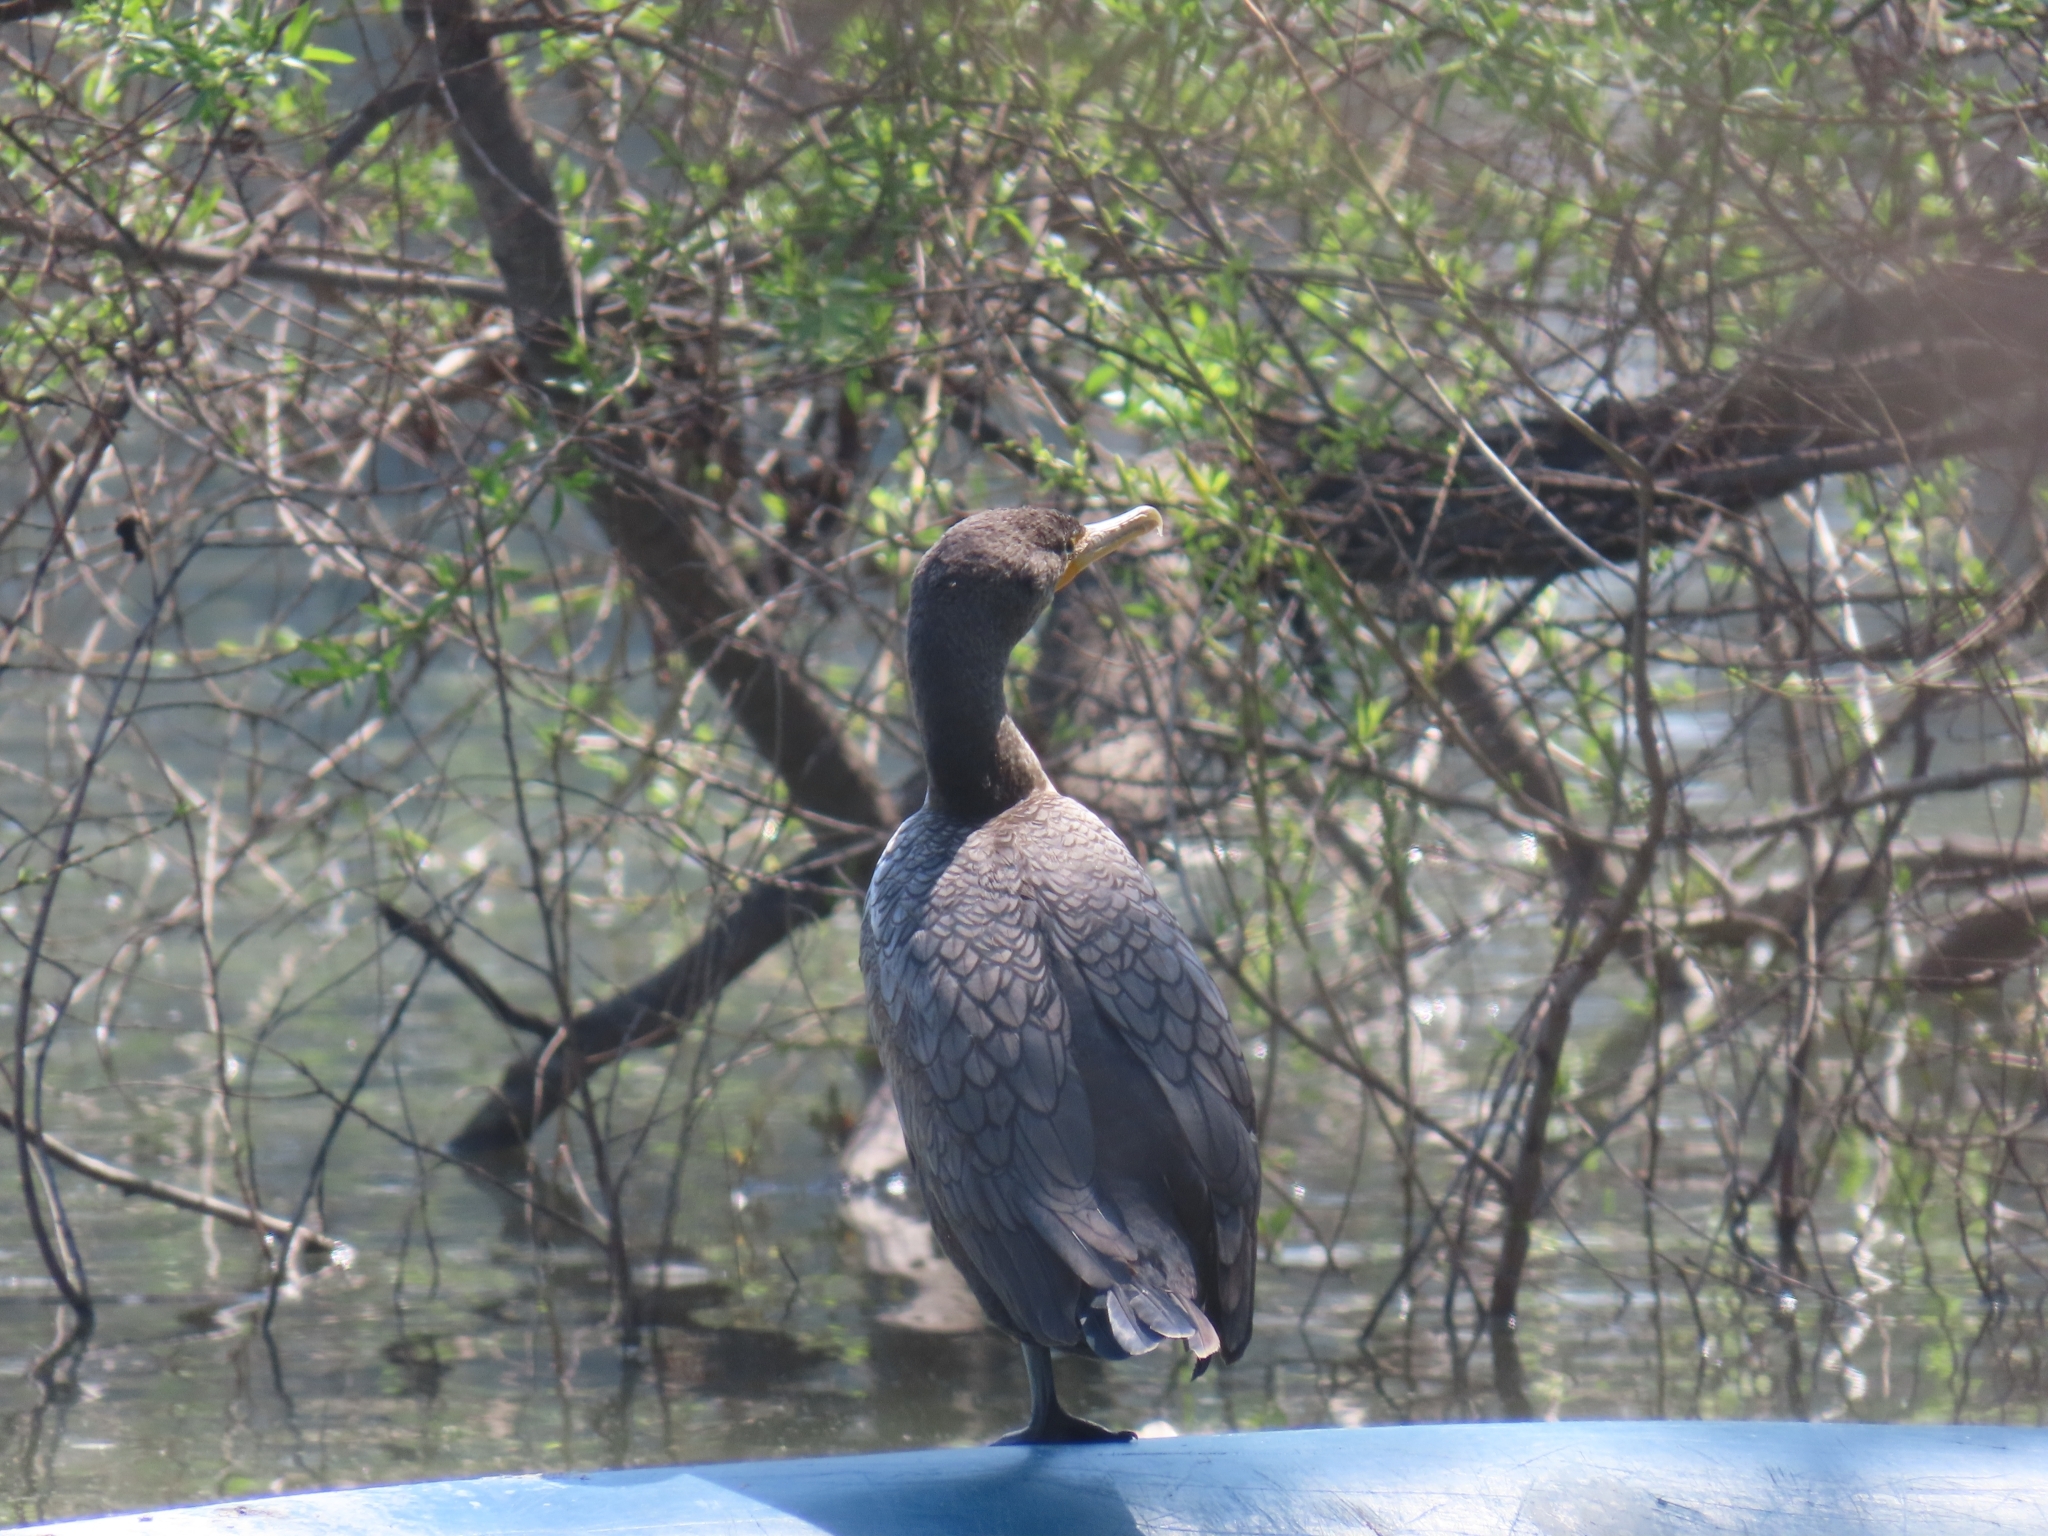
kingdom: Animalia
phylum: Chordata
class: Aves
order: Suliformes
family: Phalacrocoracidae
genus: Phalacrocorax
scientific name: Phalacrocorax auritus
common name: Double-crested cormorant
